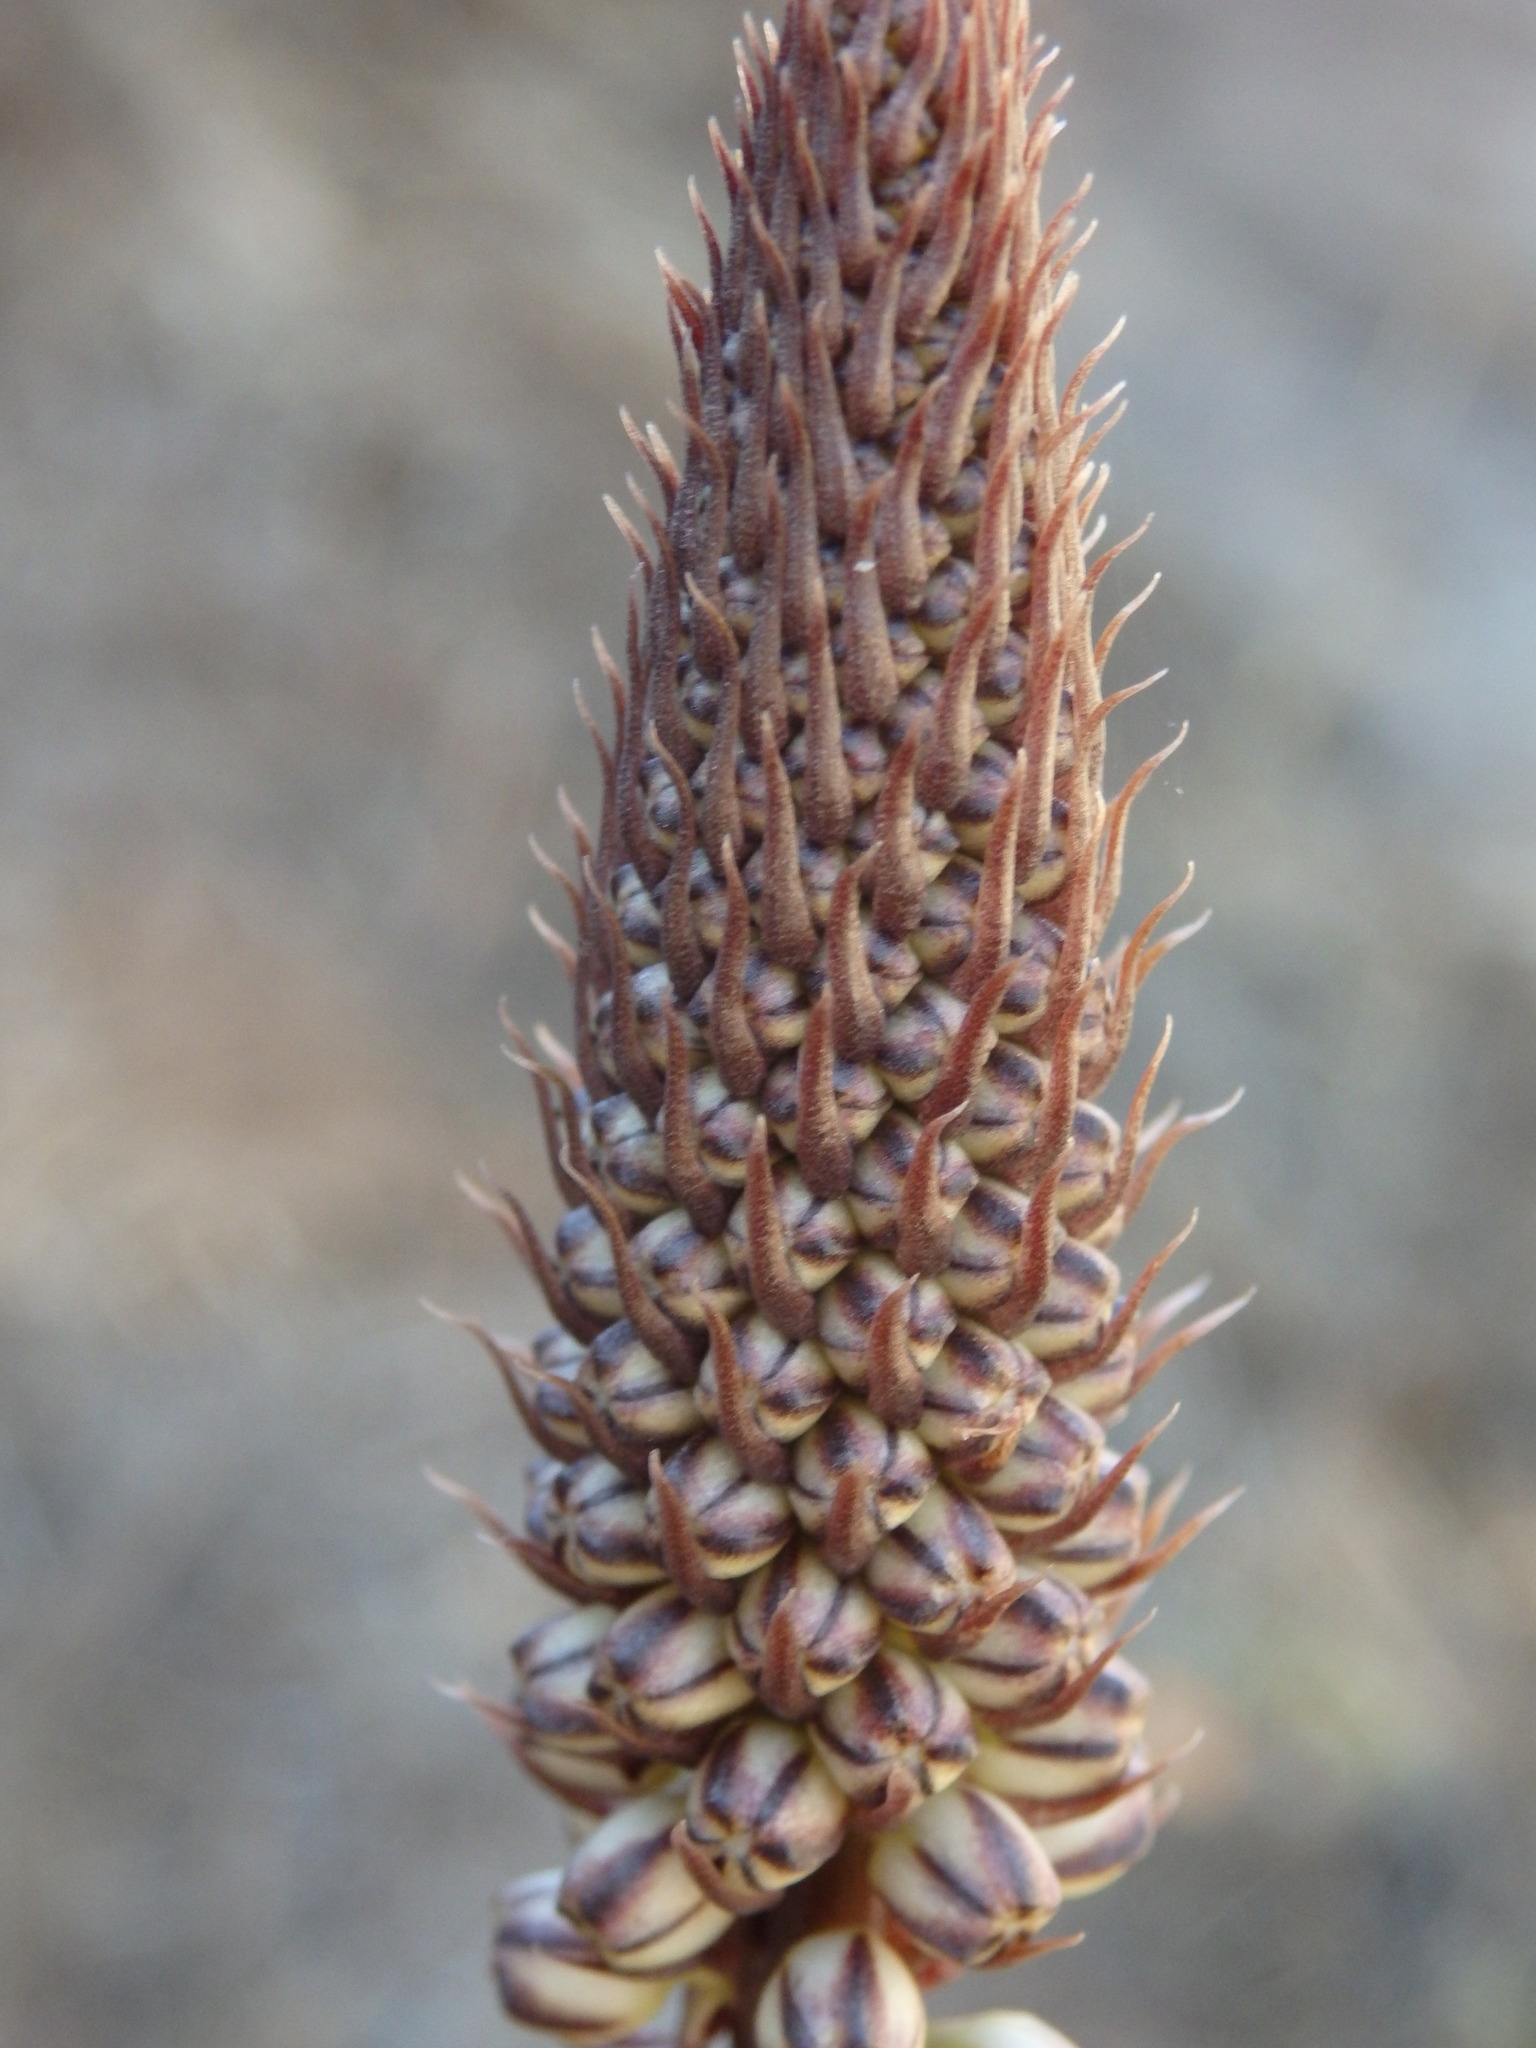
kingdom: Plantae
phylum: Tracheophyta
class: Liliopsida
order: Asparagales
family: Asparagaceae
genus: Drimia
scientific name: Drimia maritima
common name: Maritime squill
